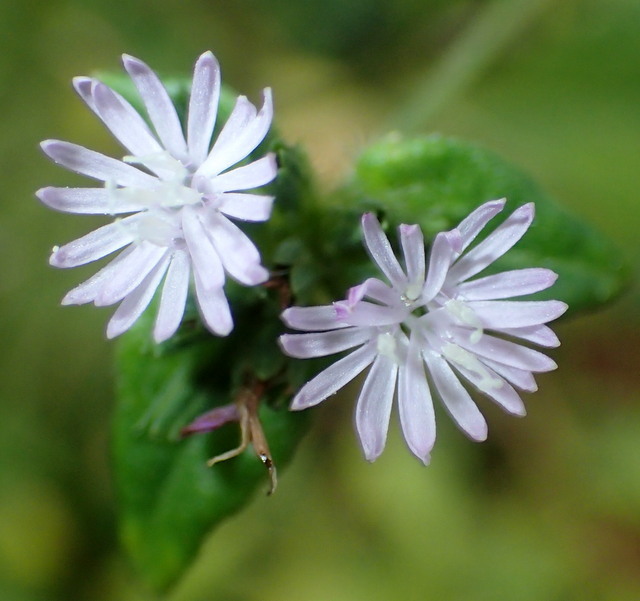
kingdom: Plantae
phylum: Tracheophyta
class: Magnoliopsida
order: Asterales
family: Asteraceae
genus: Elephantopus
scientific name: Elephantopus carolinianus
